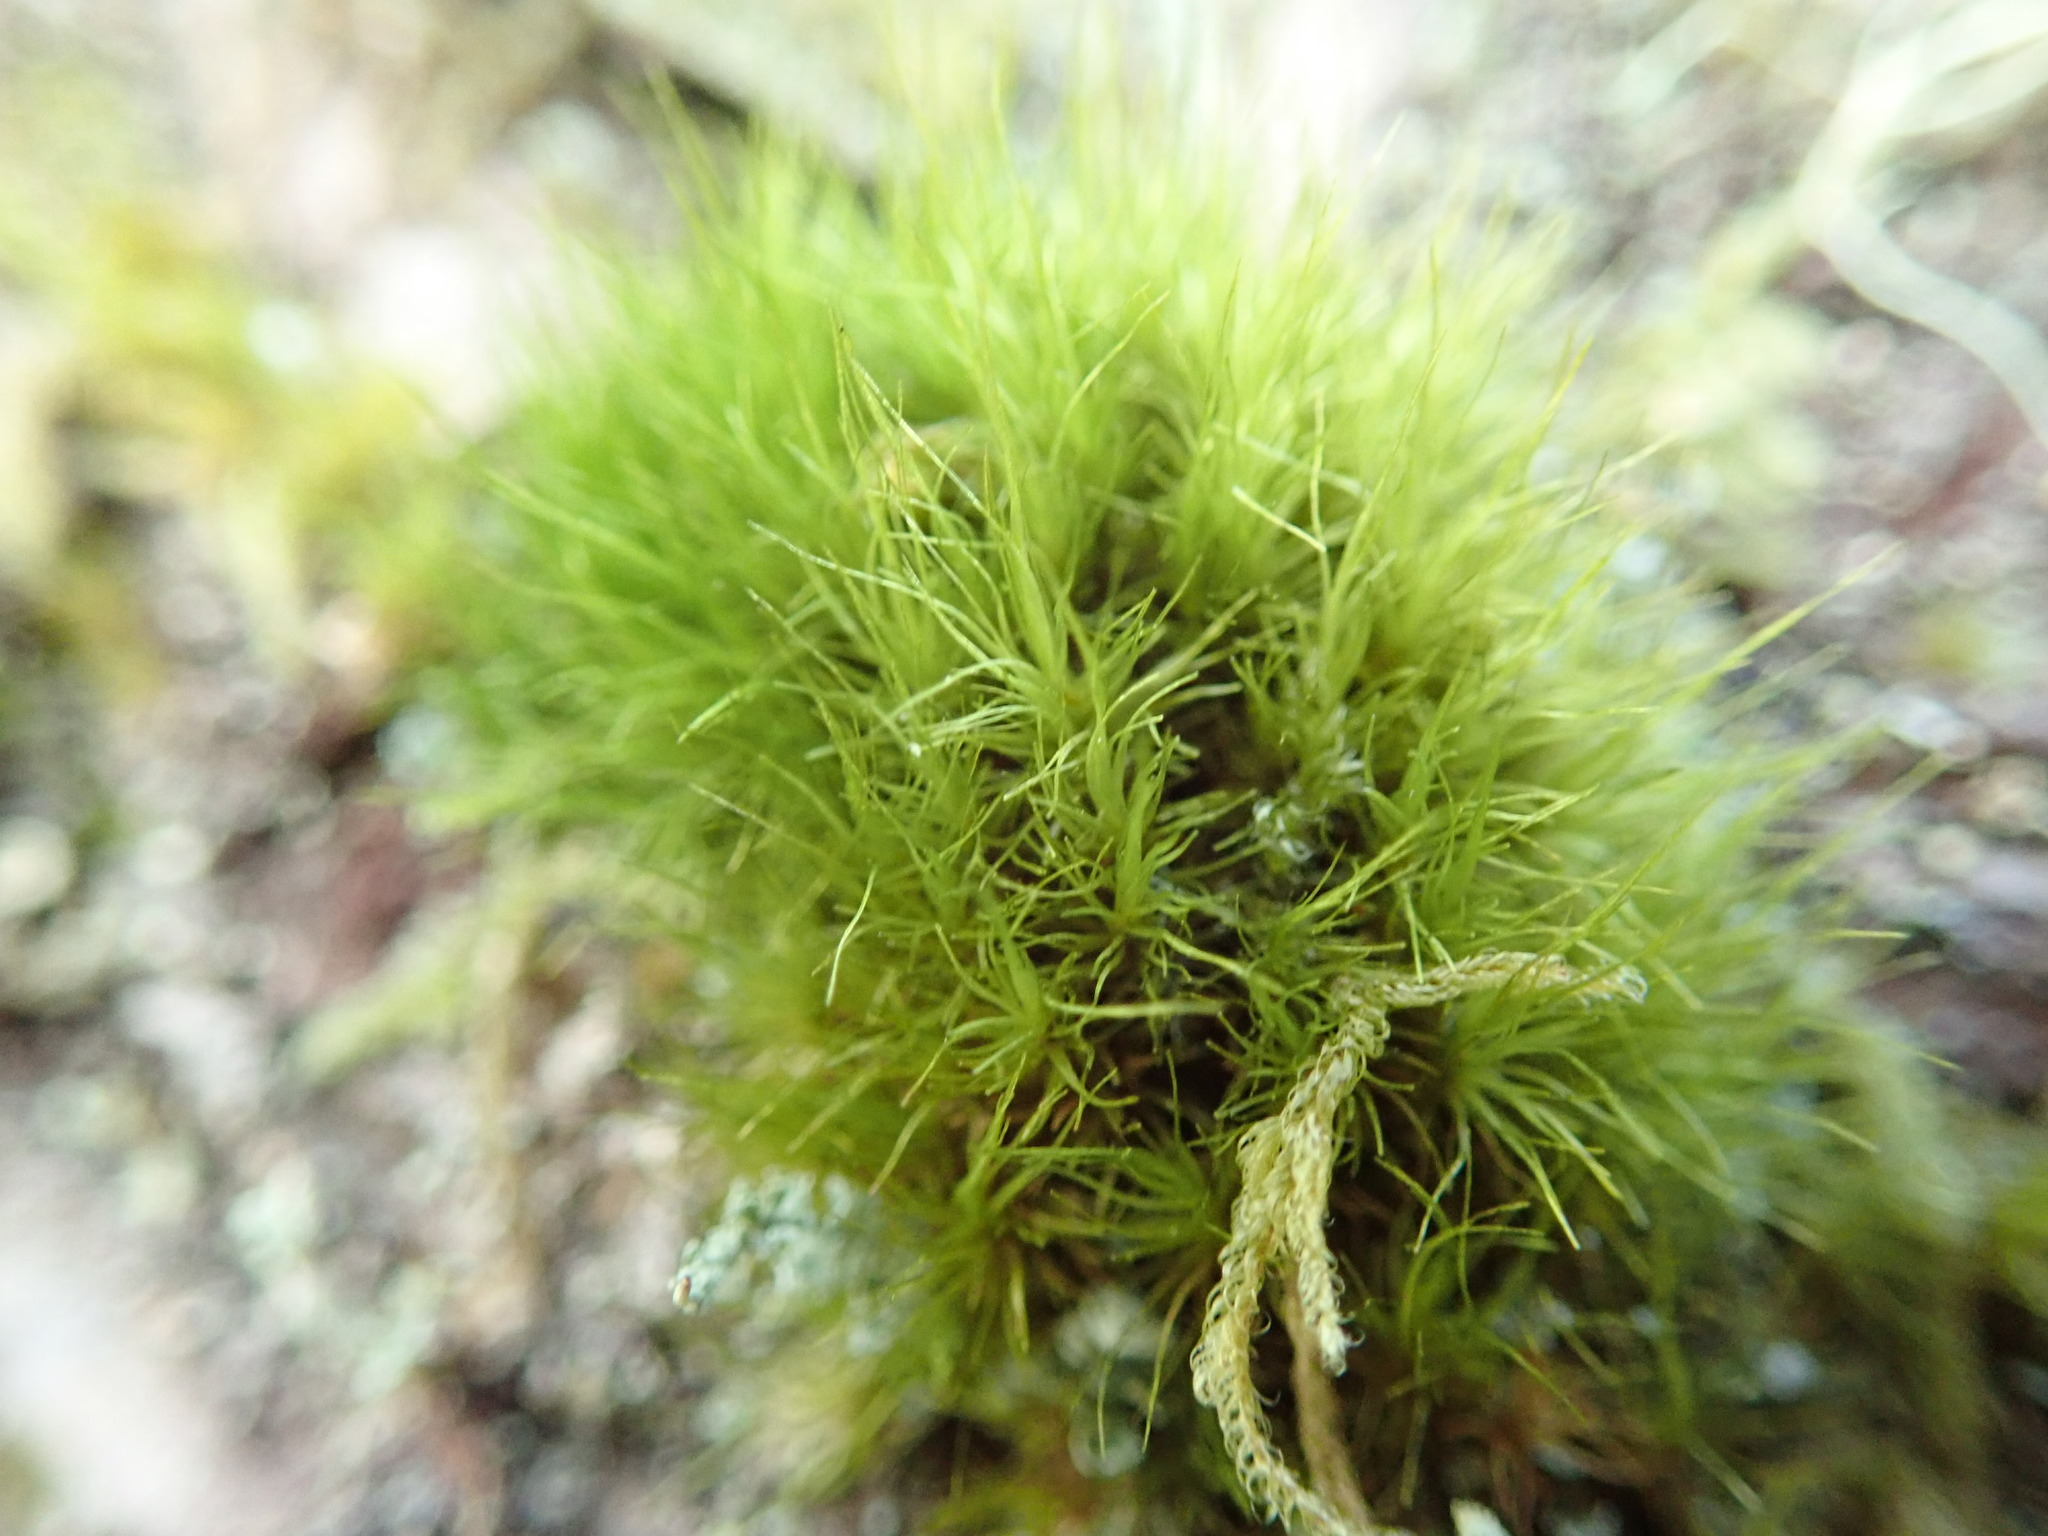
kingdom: Plantae
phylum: Bryophyta
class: Bryopsida
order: Dicranales
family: Dicranaceae
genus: Orthodicranum
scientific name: Orthodicranum tauricum
